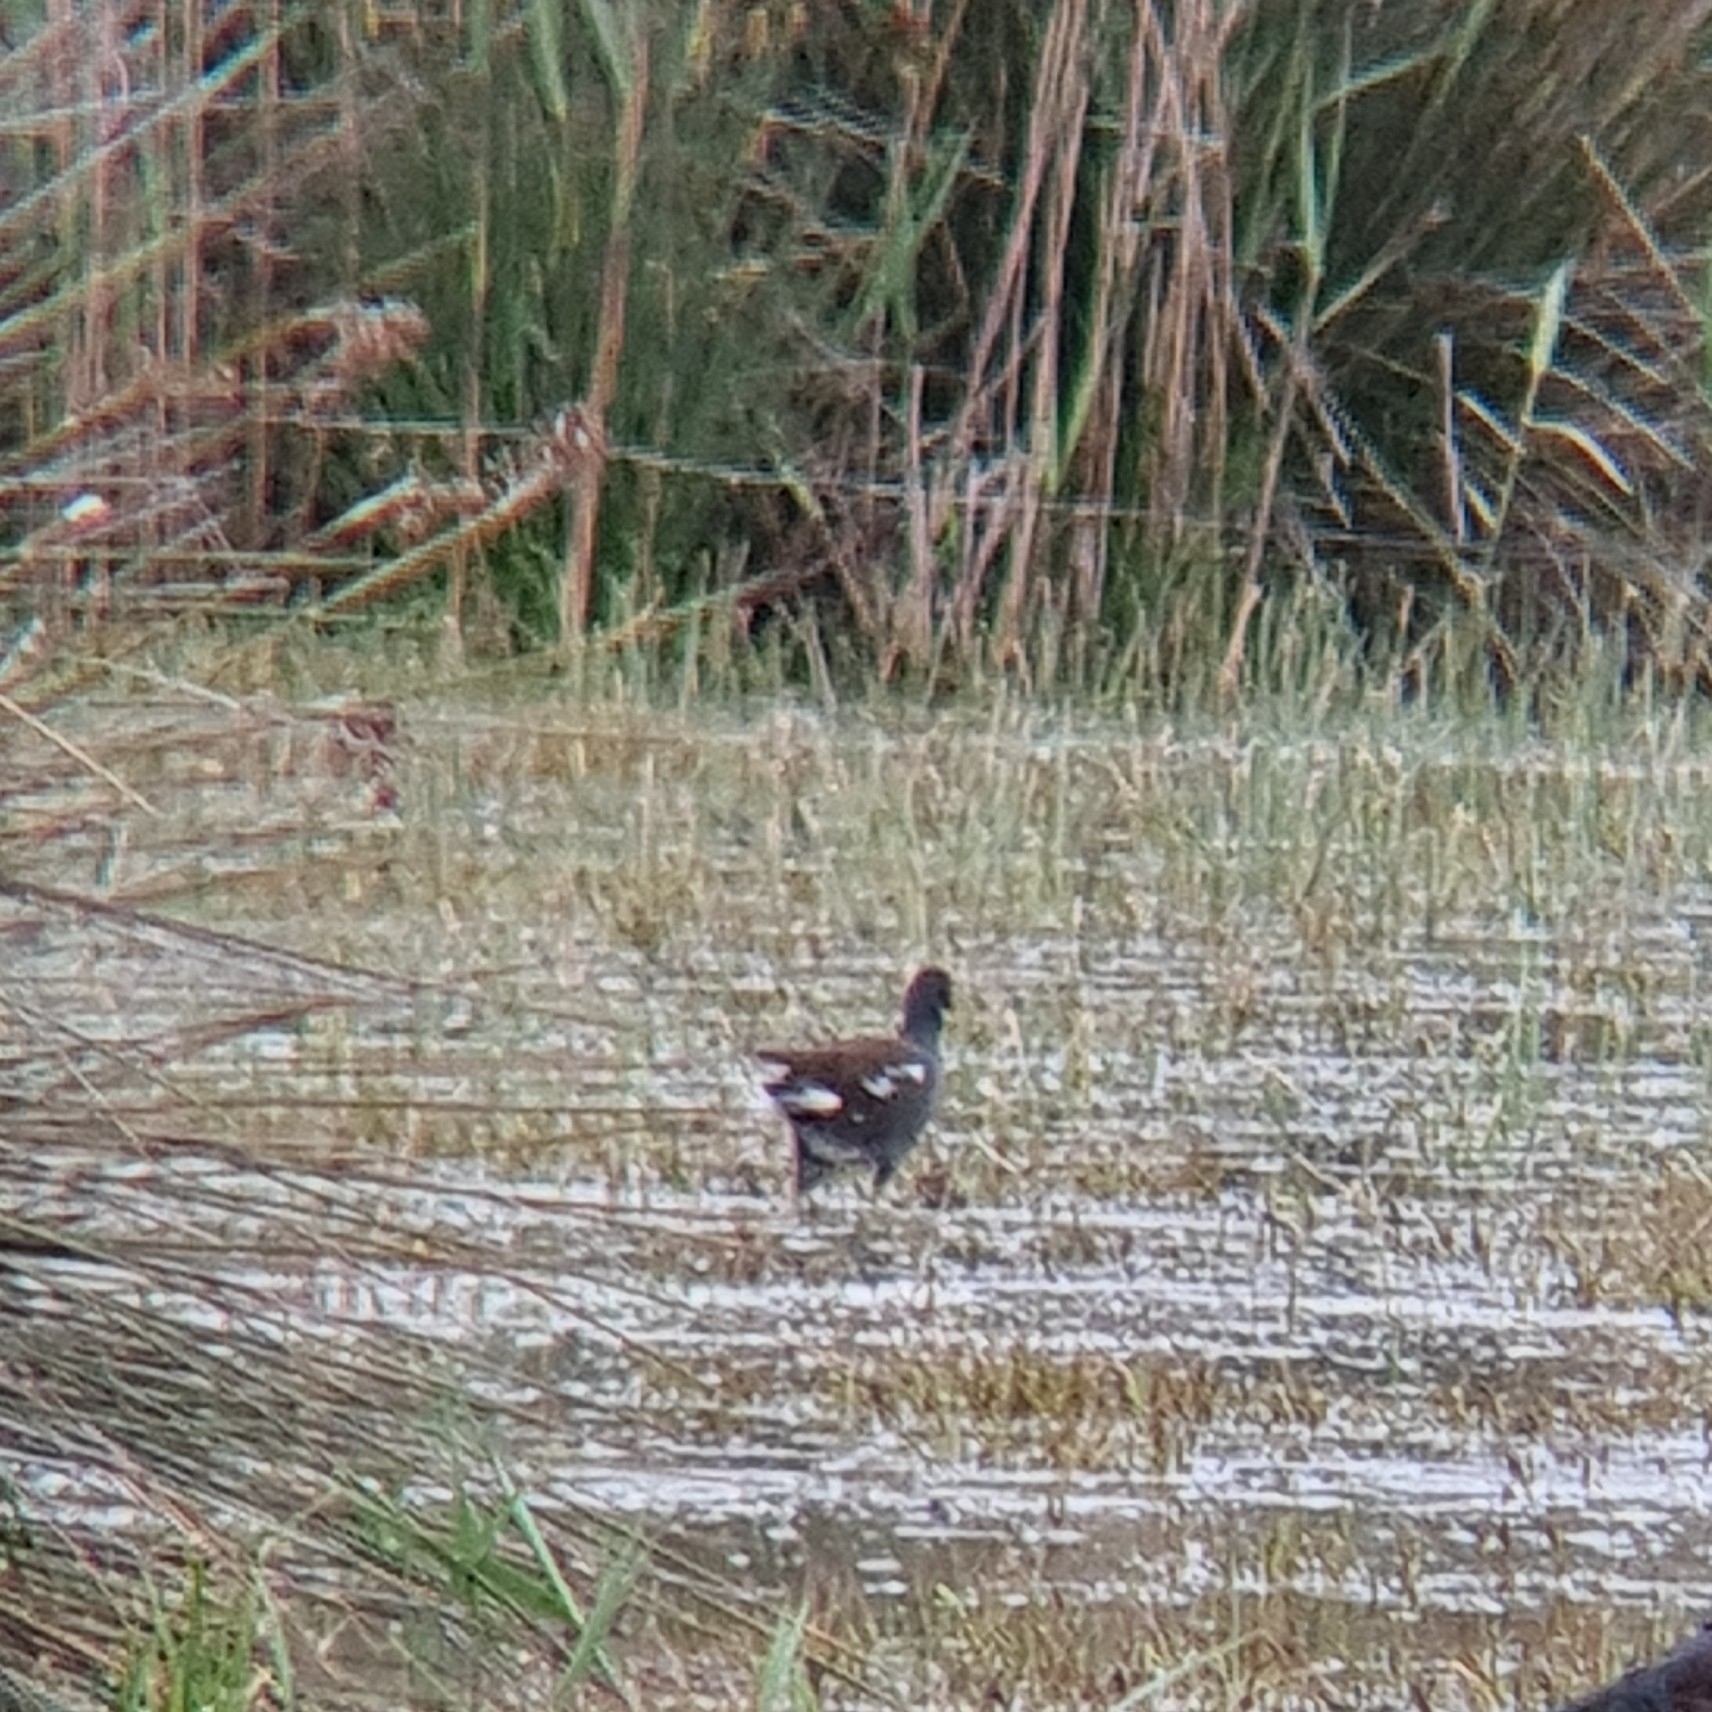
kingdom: Animalia
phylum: Chordata
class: Aves
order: Gruiformes
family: Rallidae
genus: Gallinula
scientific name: Gallinula chloropus
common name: Common moorhen
